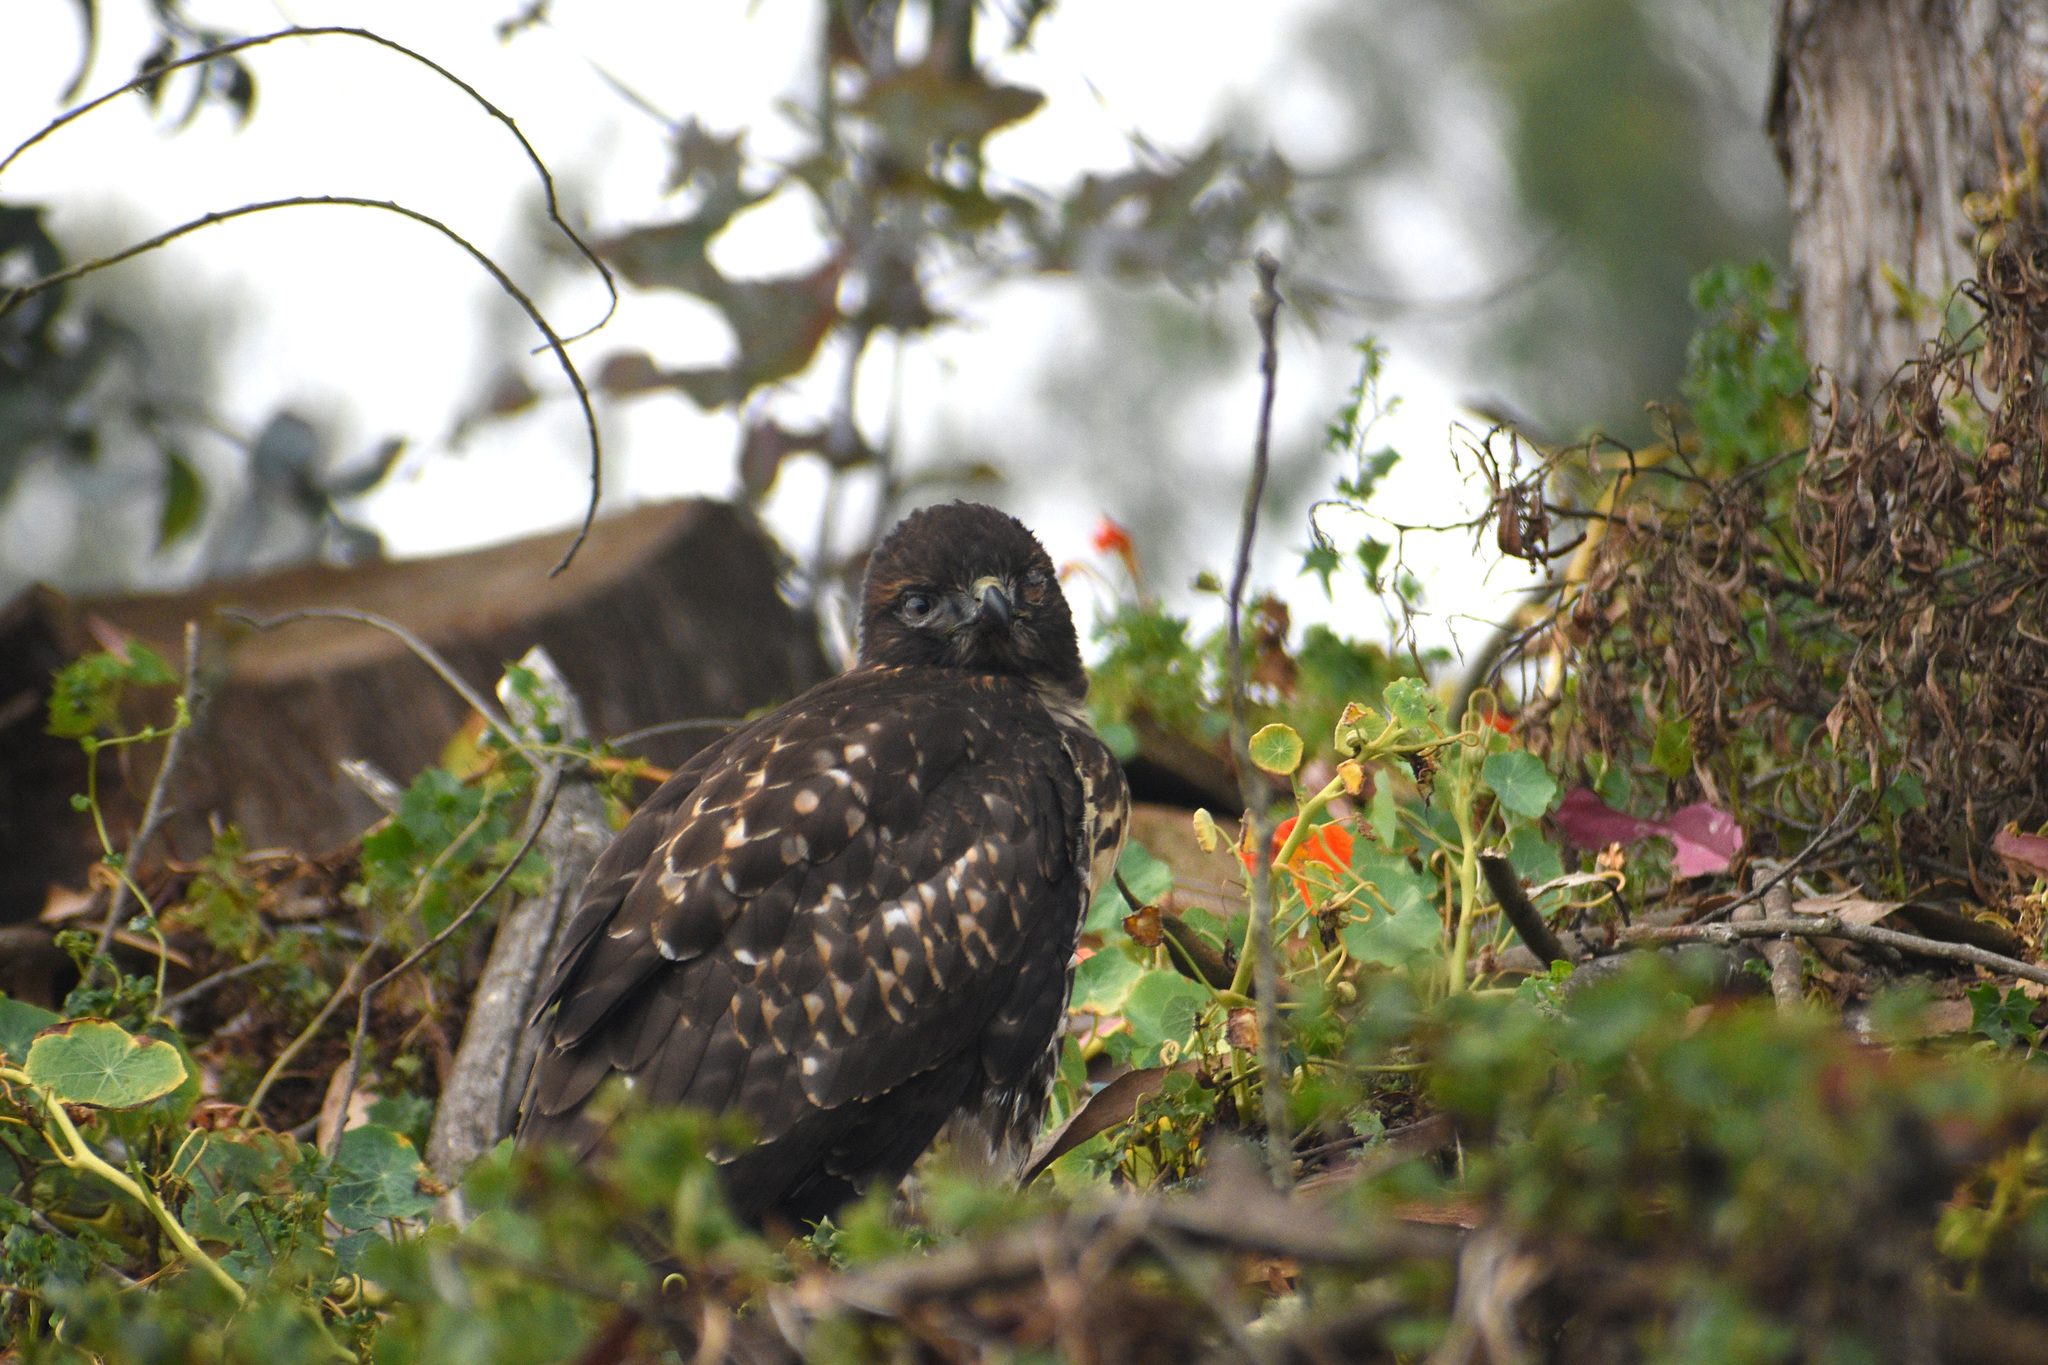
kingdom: Animalia
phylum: Chordata
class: Aves
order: Accipitriformes
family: Accipitridae
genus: Buteo
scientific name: Buteo jamaicensis
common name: Red-tailed hawk
